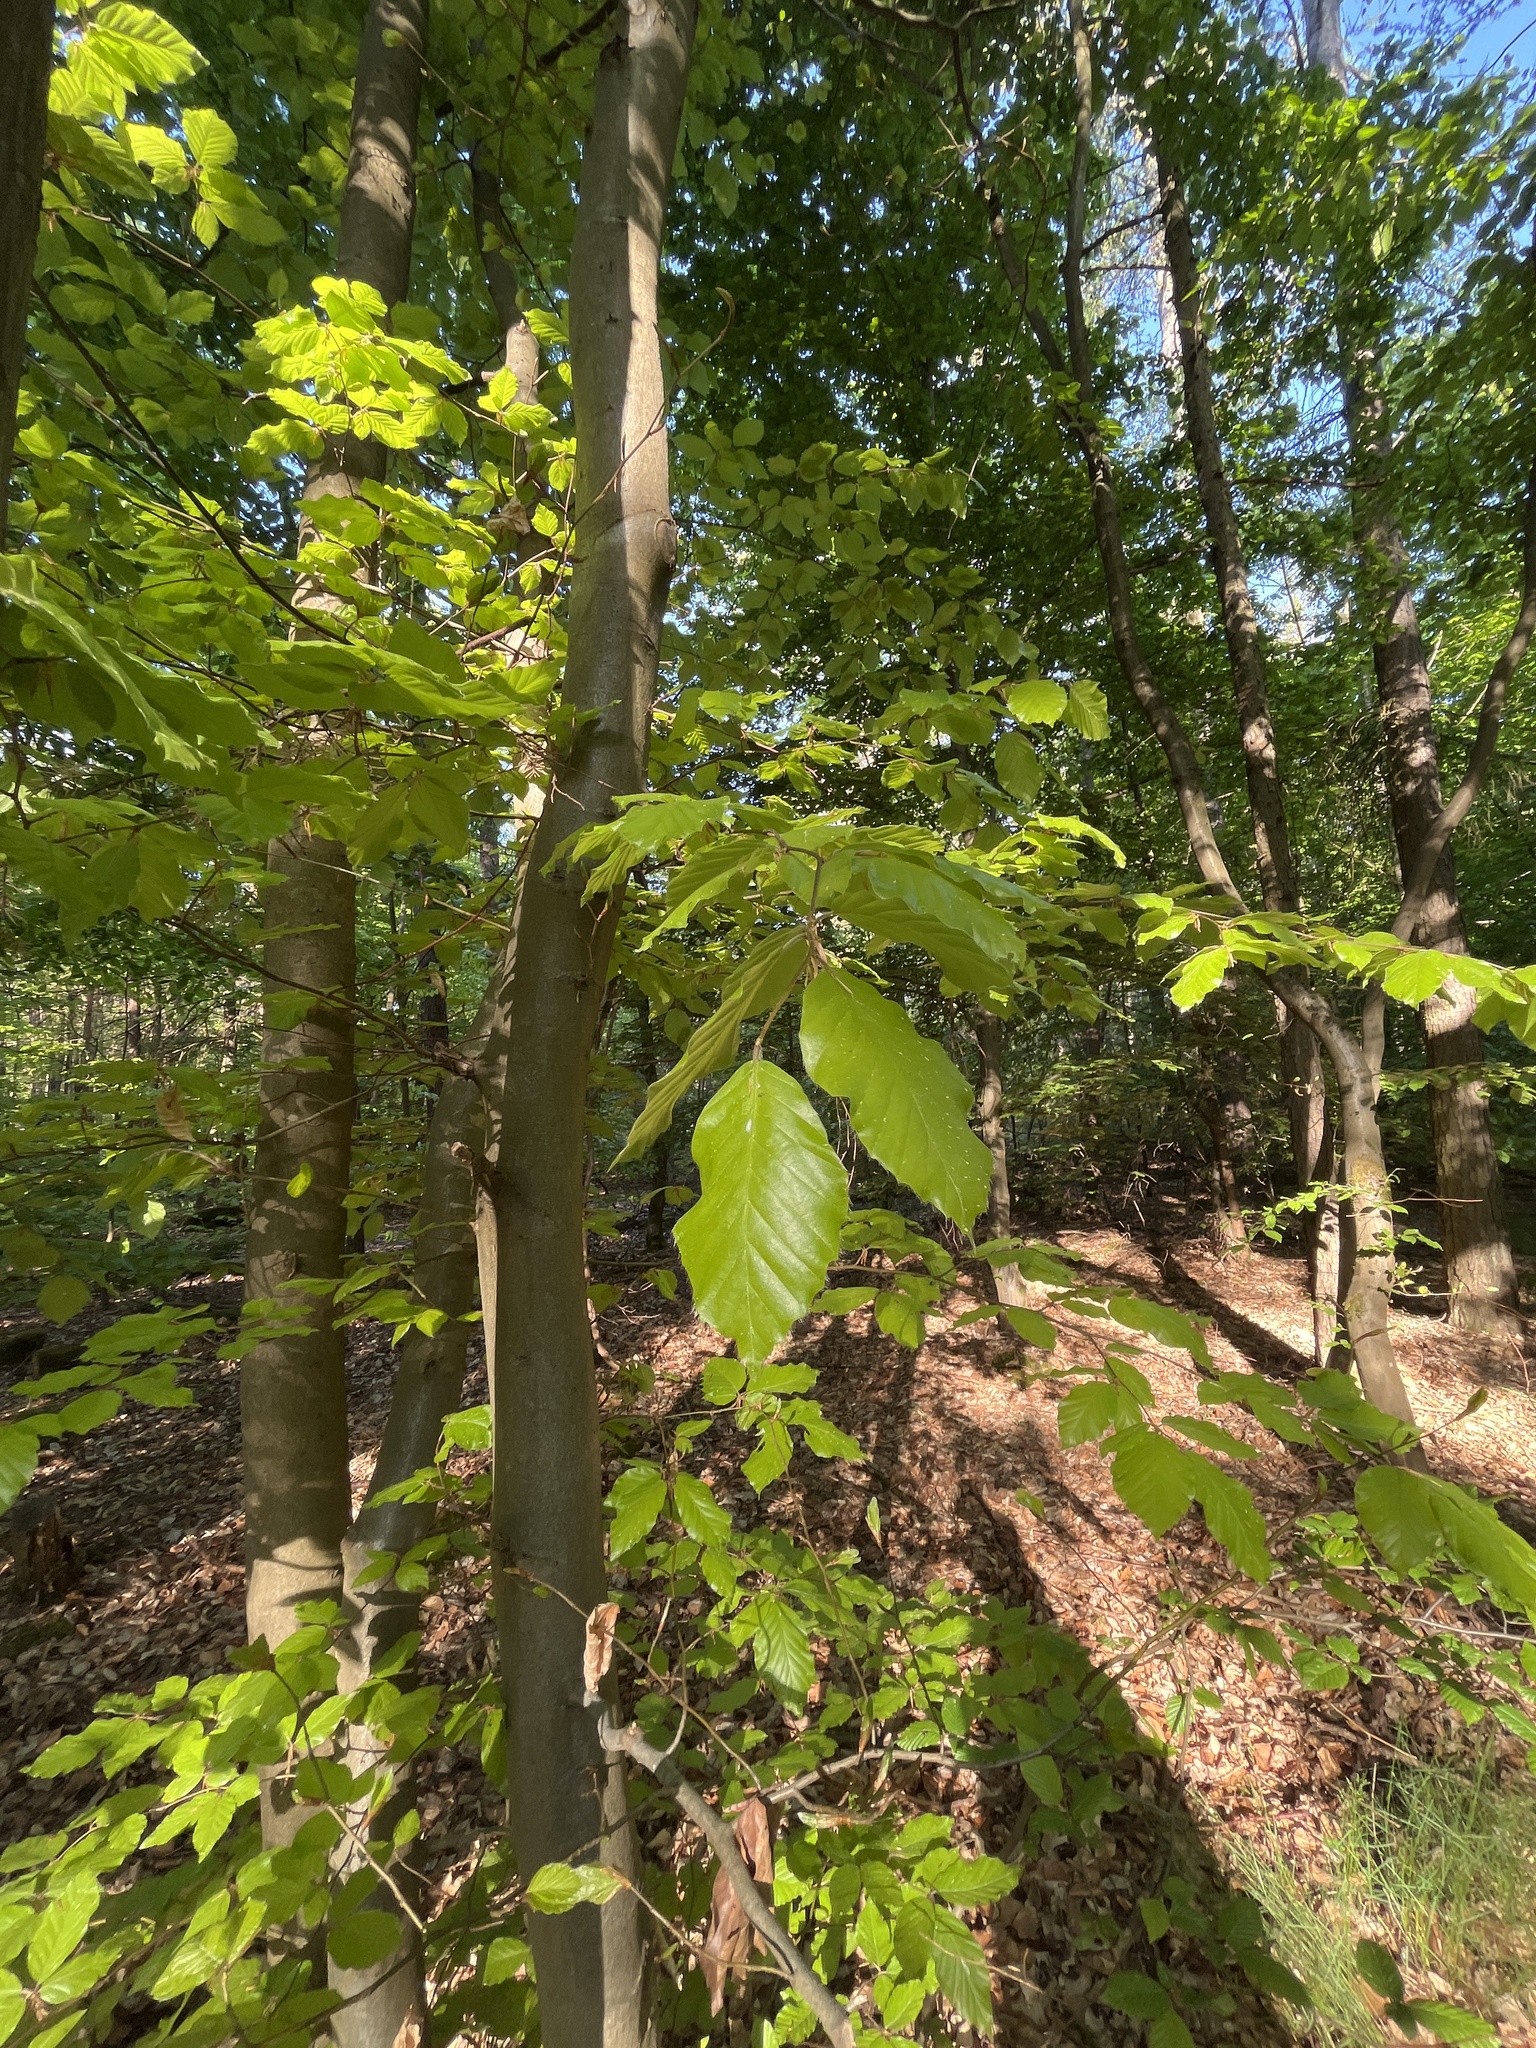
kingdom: Plantae
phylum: Tracheophyta
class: Magnoliopsida
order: Fagales
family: Fagaceae
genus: Fagus
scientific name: Fagus sylvatica
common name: Beech
